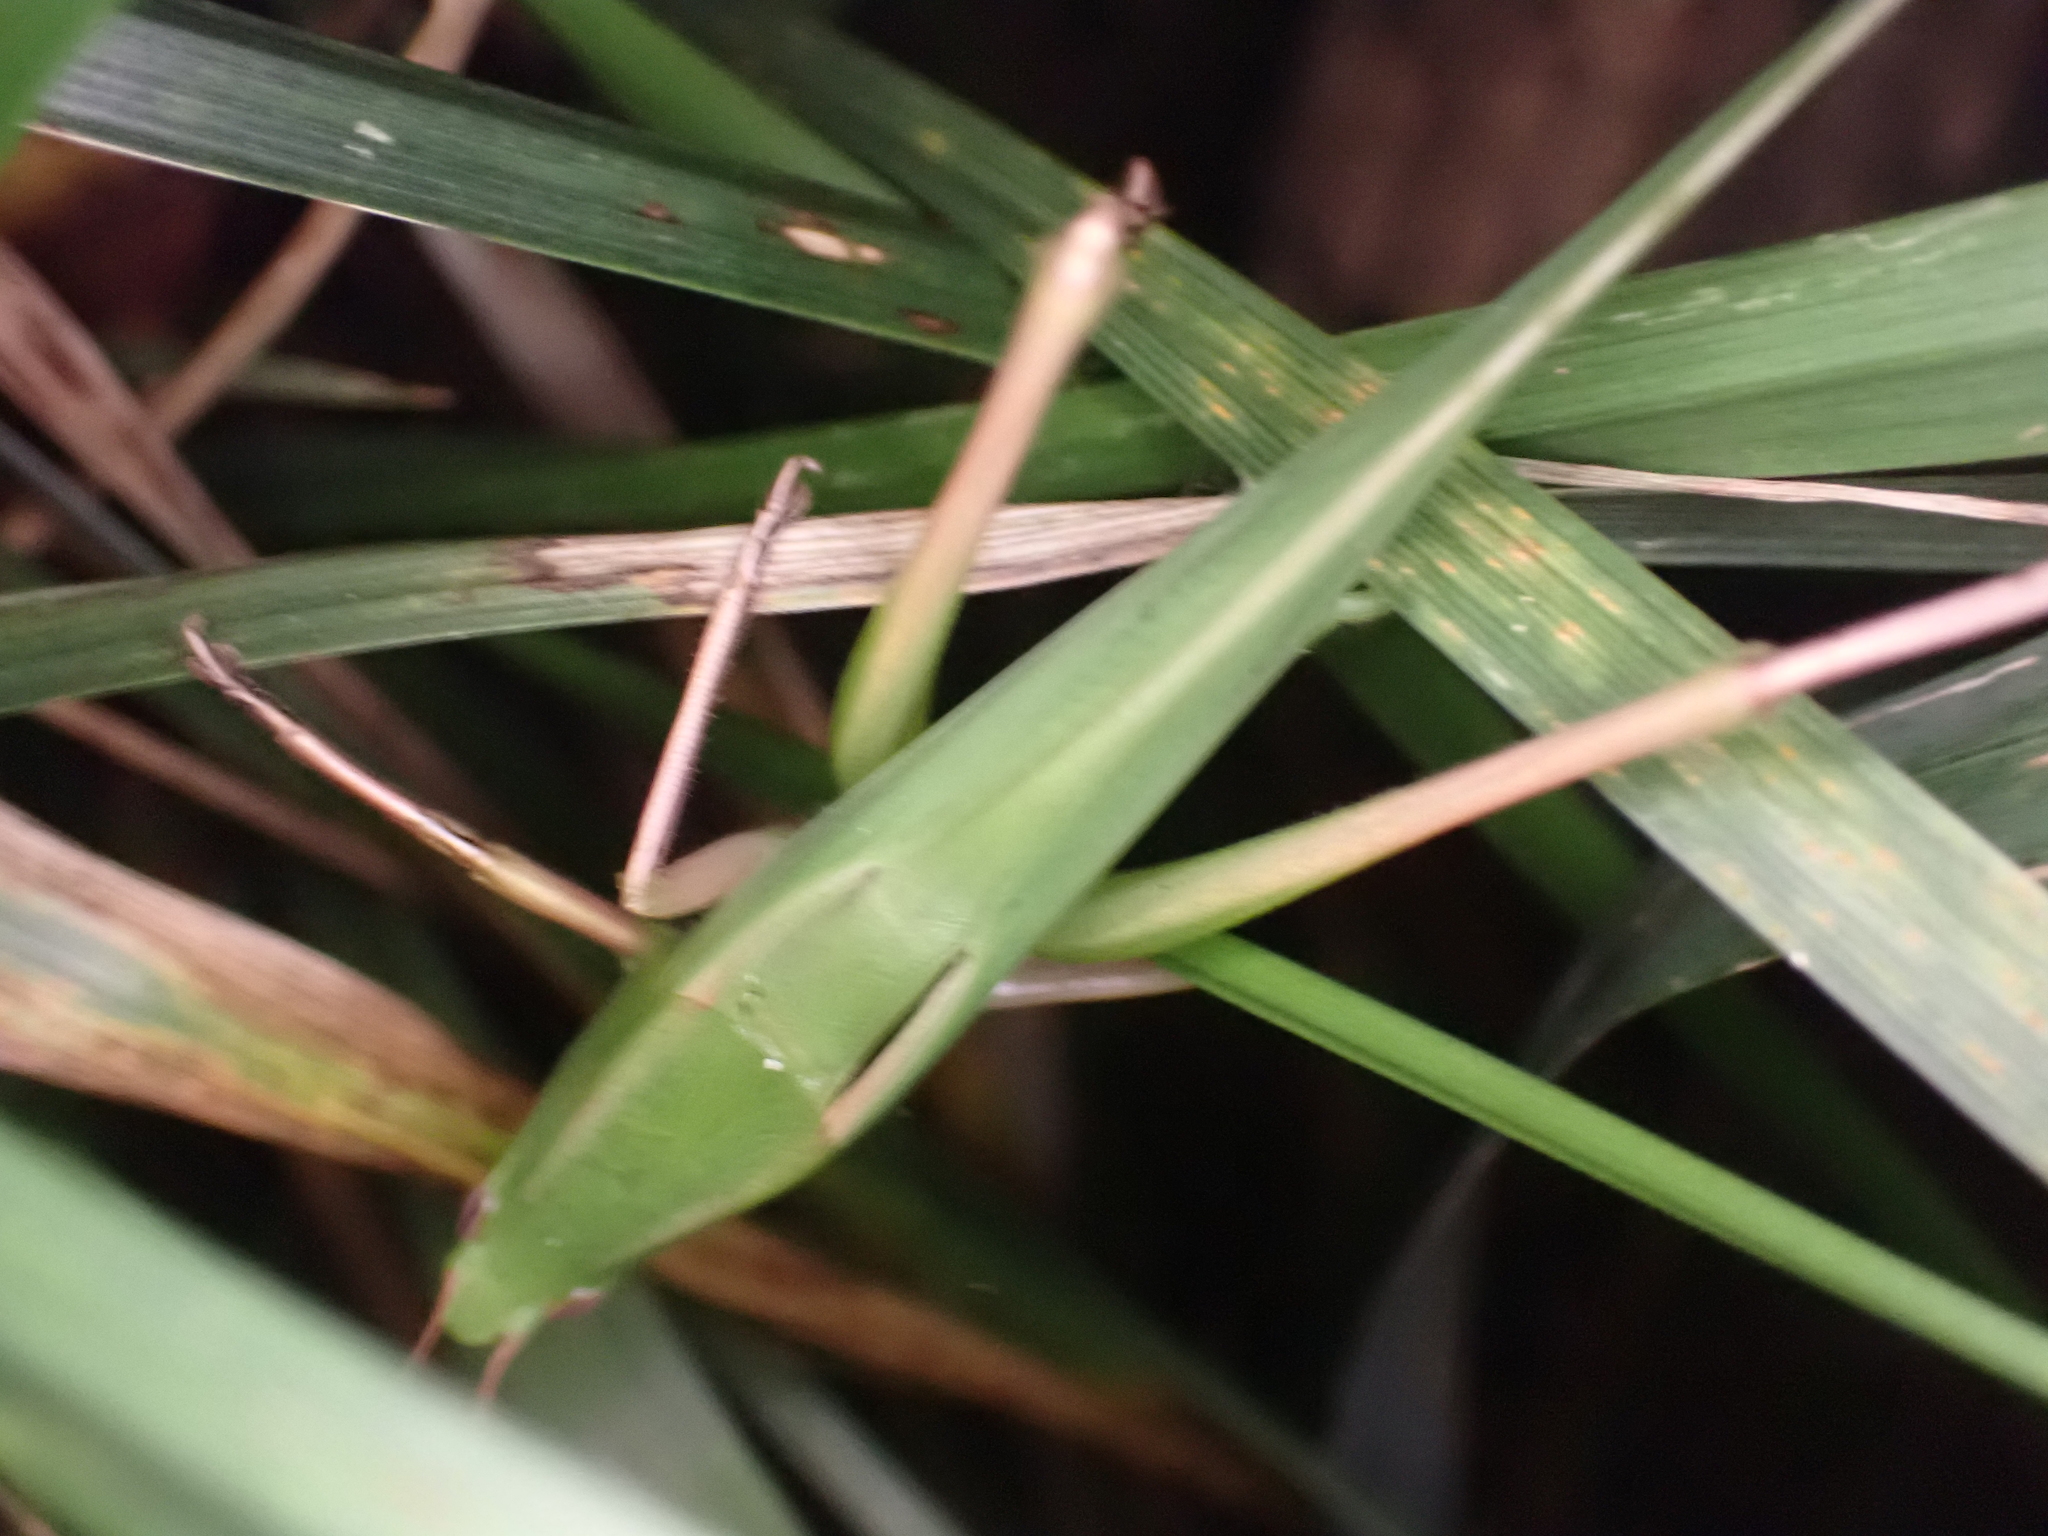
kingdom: Animalia
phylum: Arthropoda
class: Insecta
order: Orthoptera
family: Tettigoniidae
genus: Neoconocephalus
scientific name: Neoconocephalus triops
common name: Broad-tipped conehead
